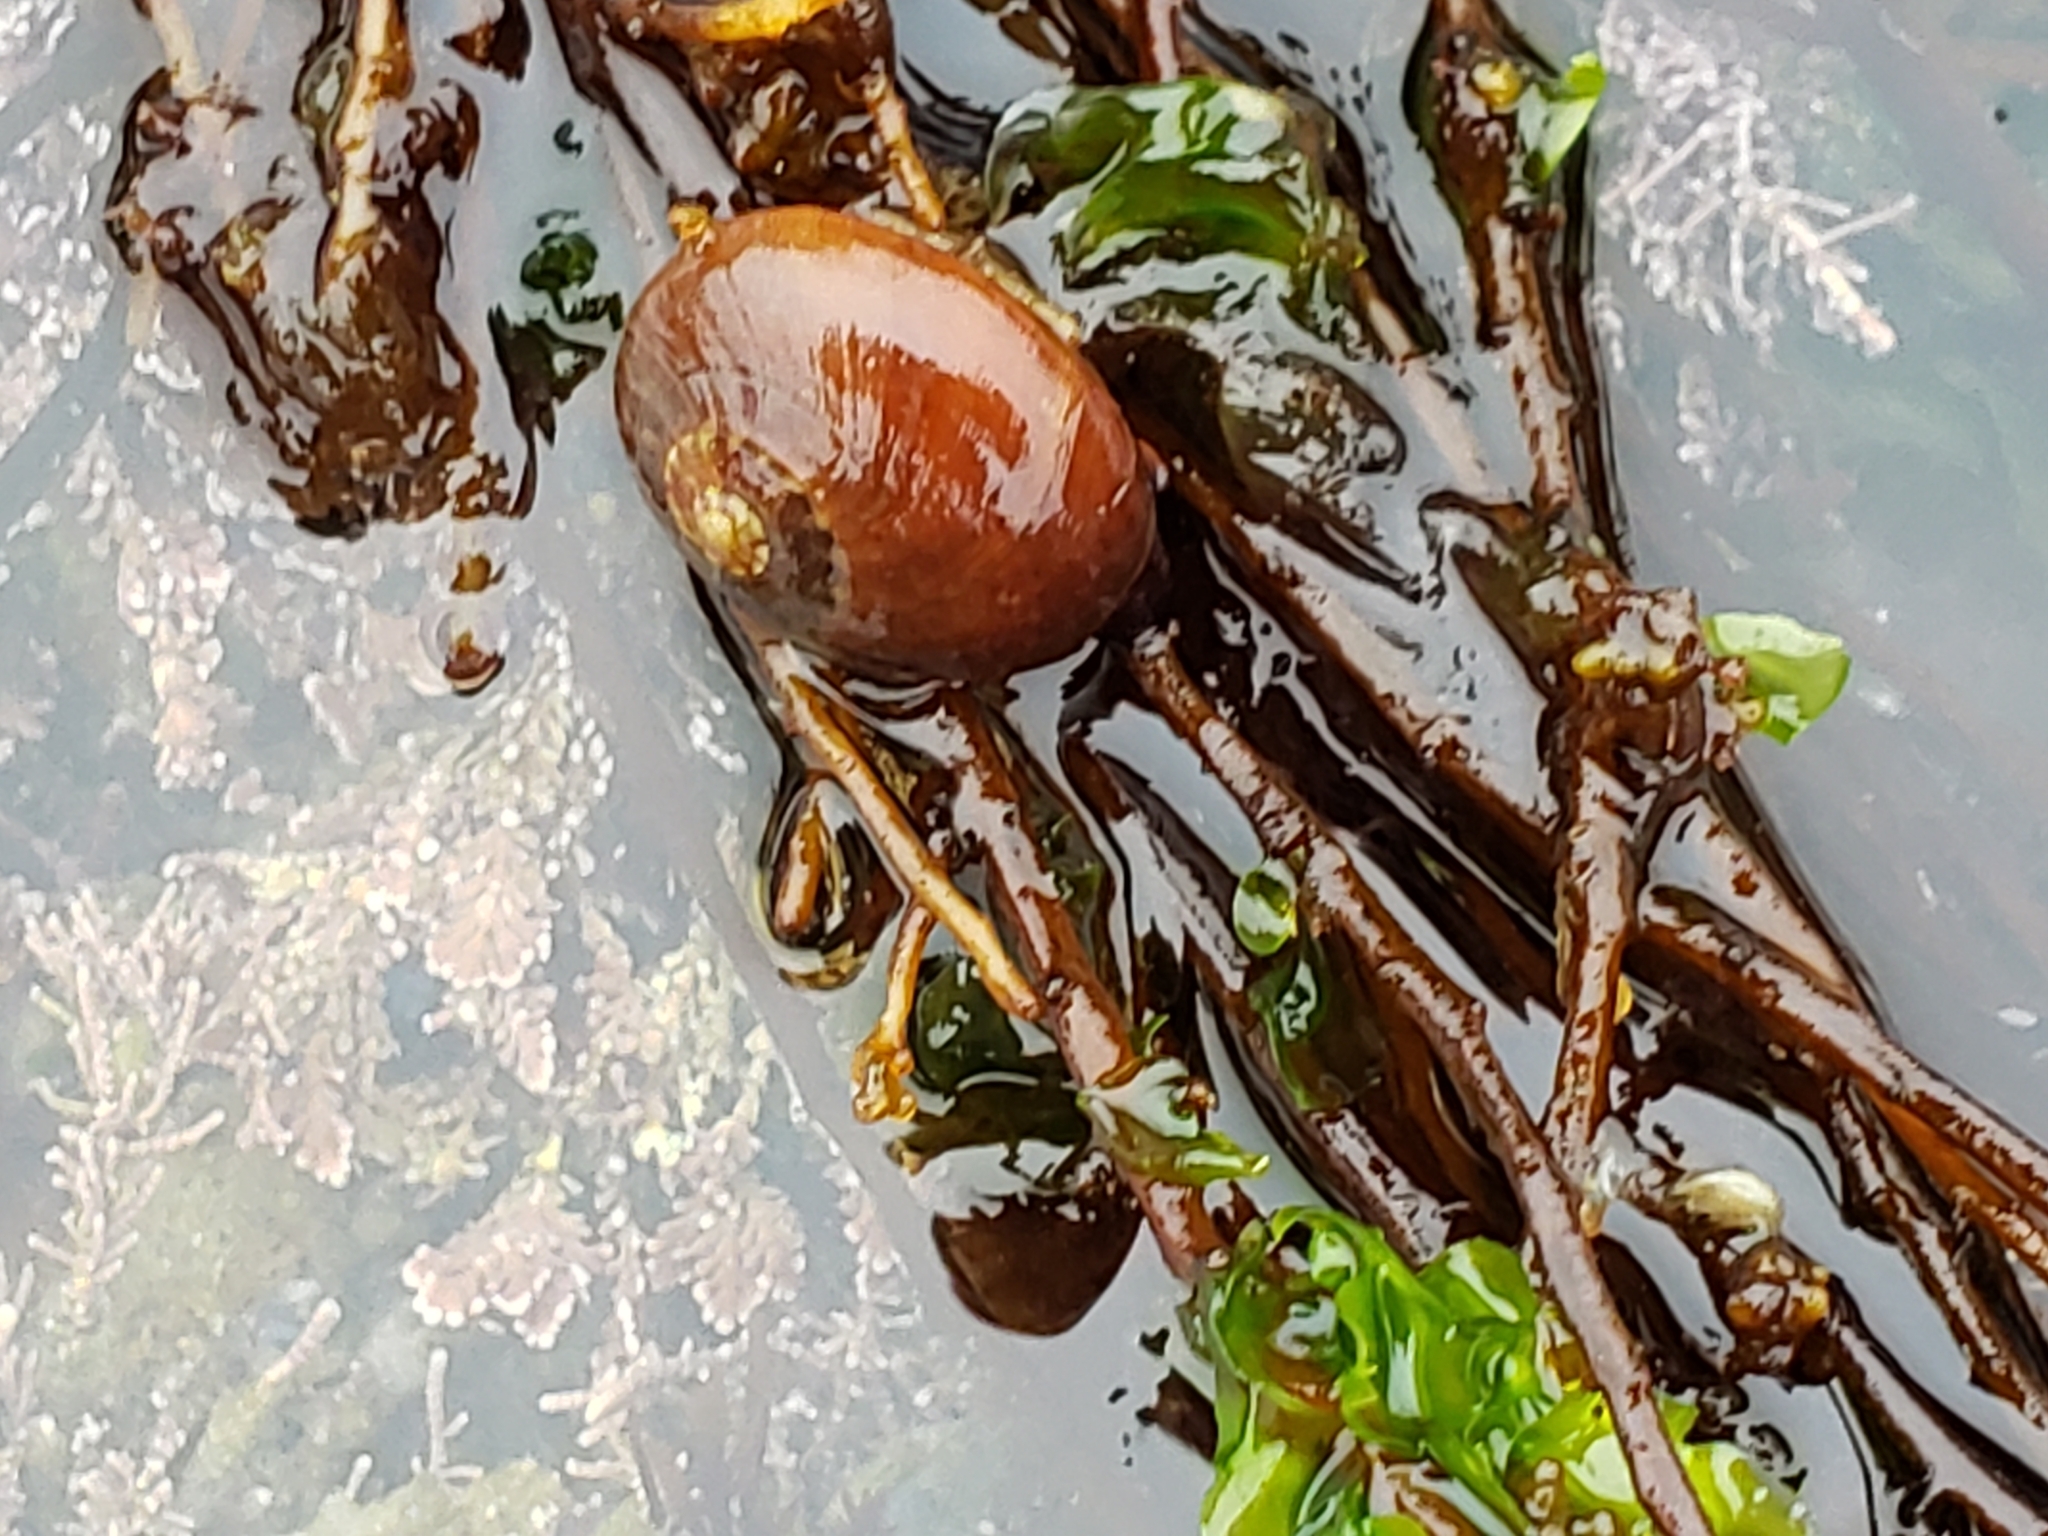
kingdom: Animalia
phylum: Mollusca
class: Gastropoda
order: Trochida
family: Tegulidae
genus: Norrisia
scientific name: Norrisia norrisii
